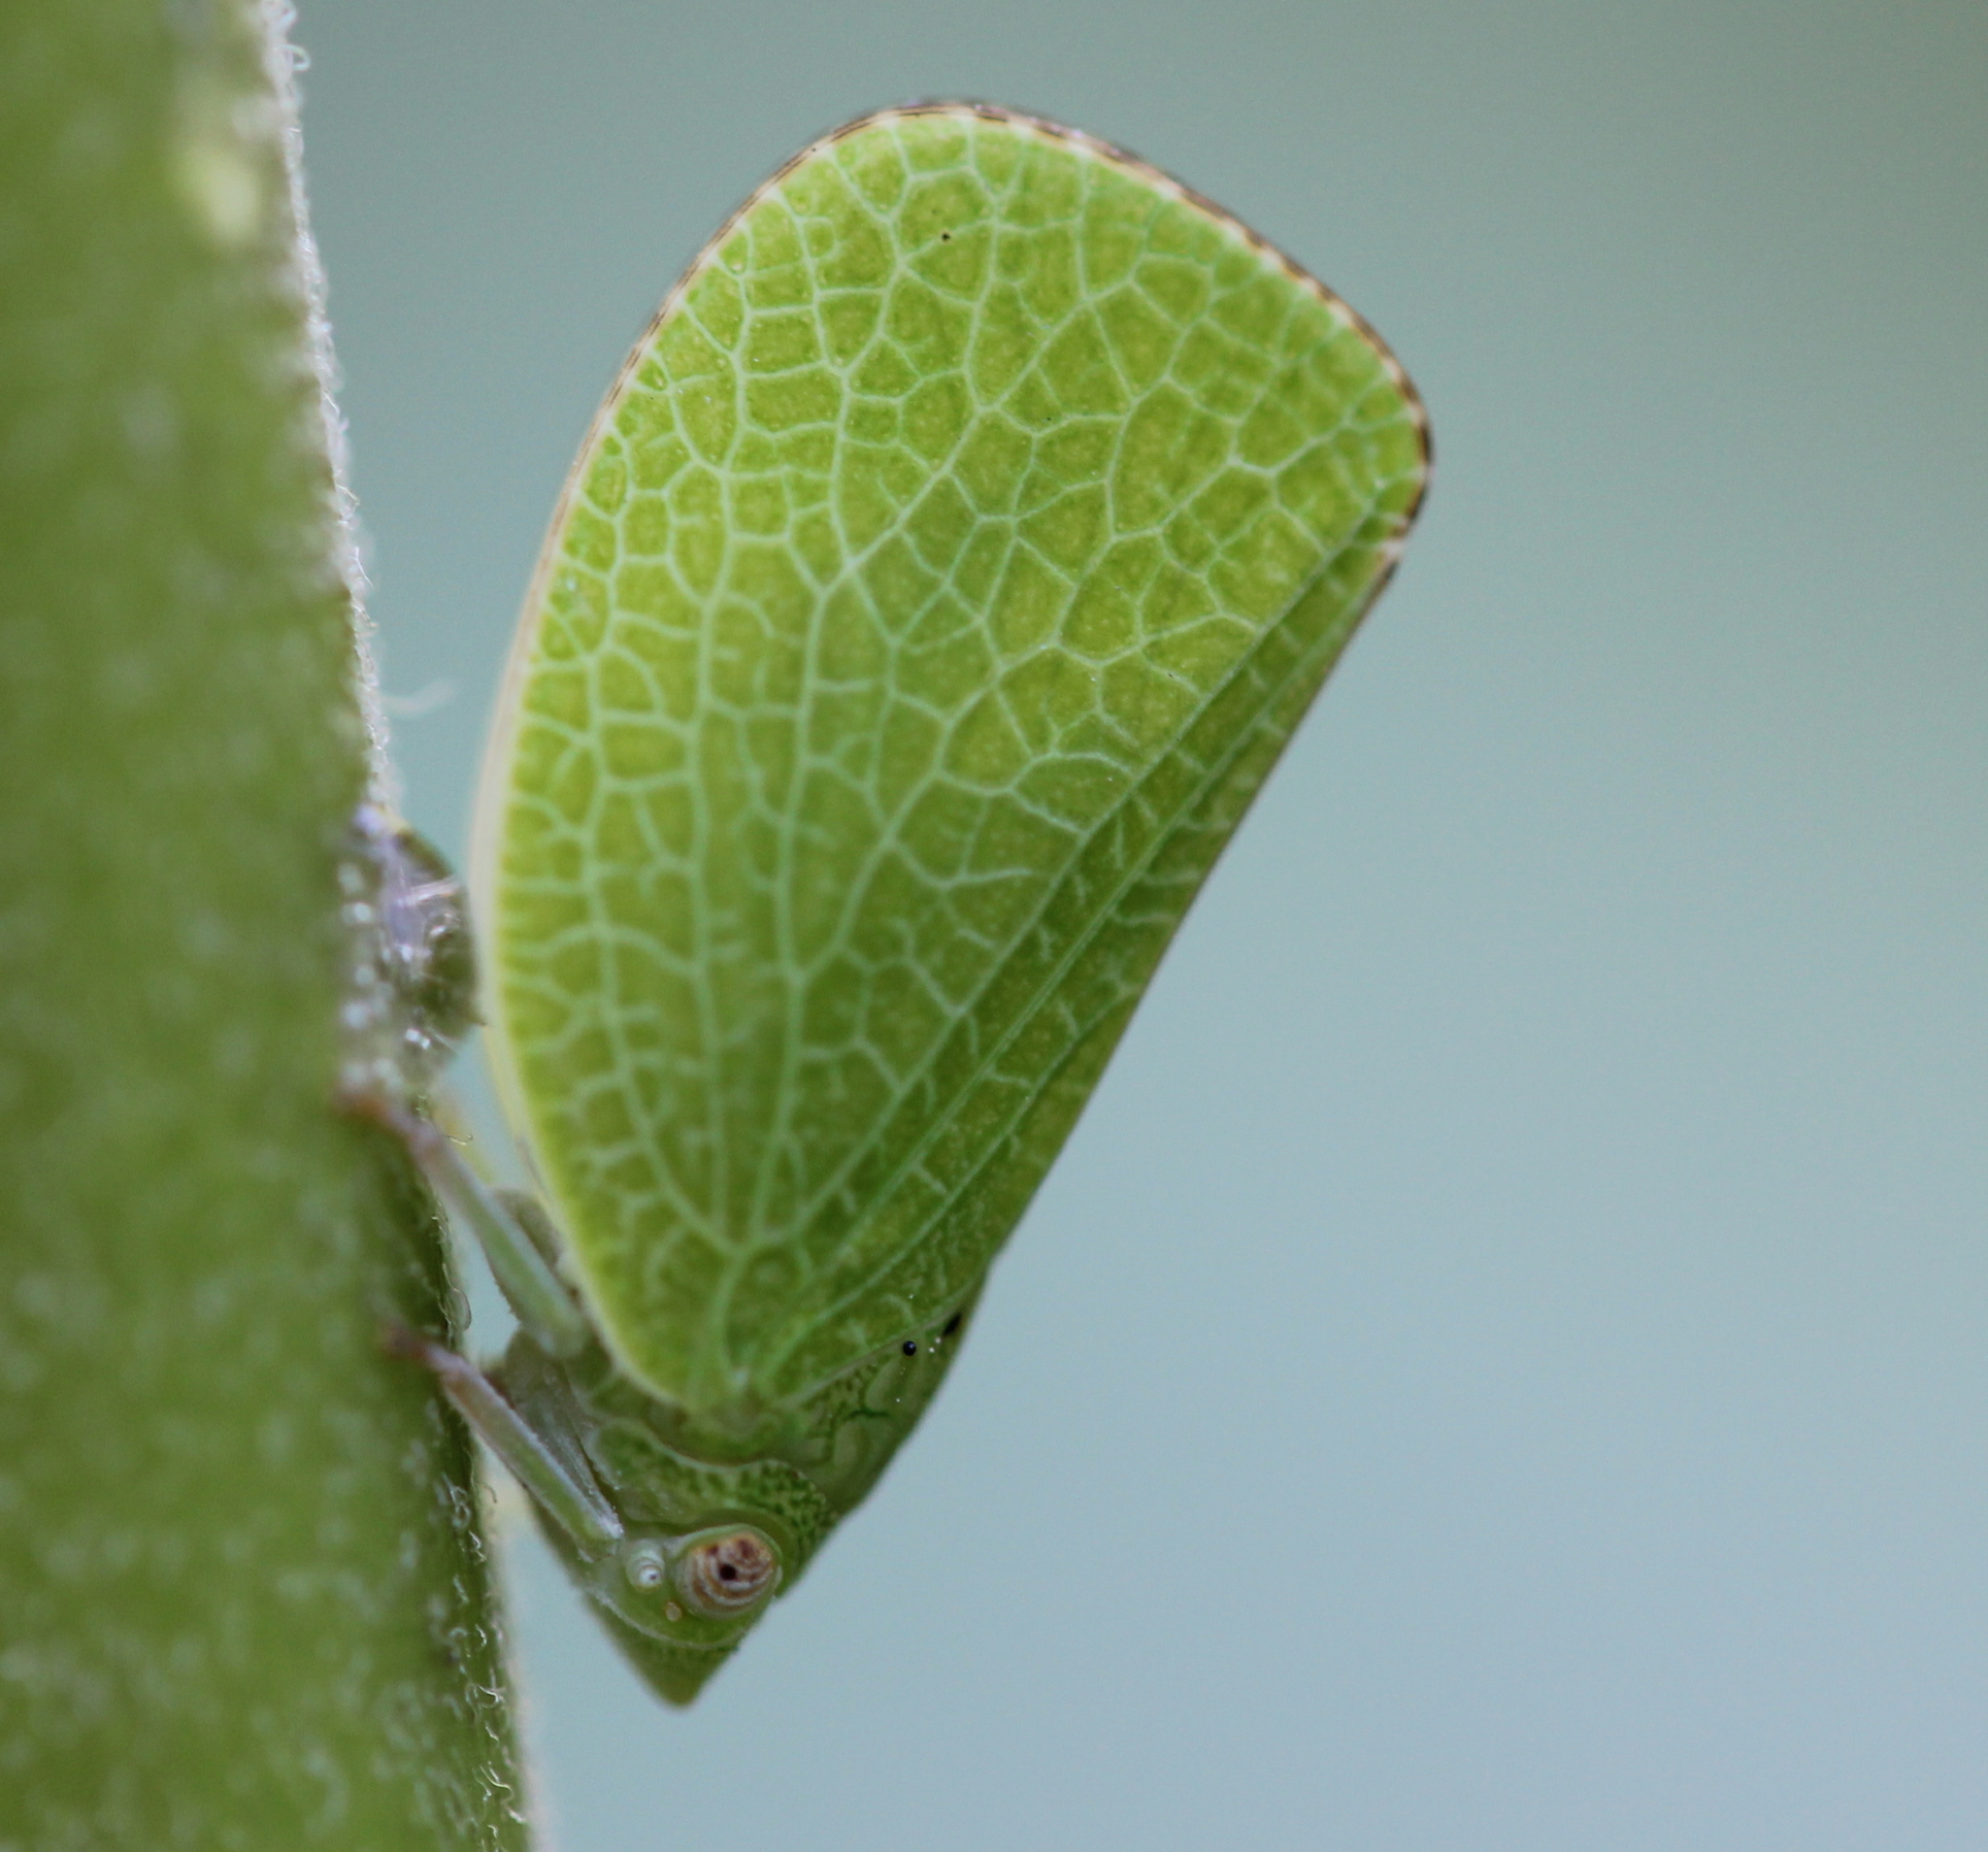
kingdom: Animalia
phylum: Arthropoda
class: Insecta
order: Hemiptera
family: Acanaloniidae
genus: Acanalonia
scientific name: Acanalonia conica
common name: Green cone-headed planthopper
